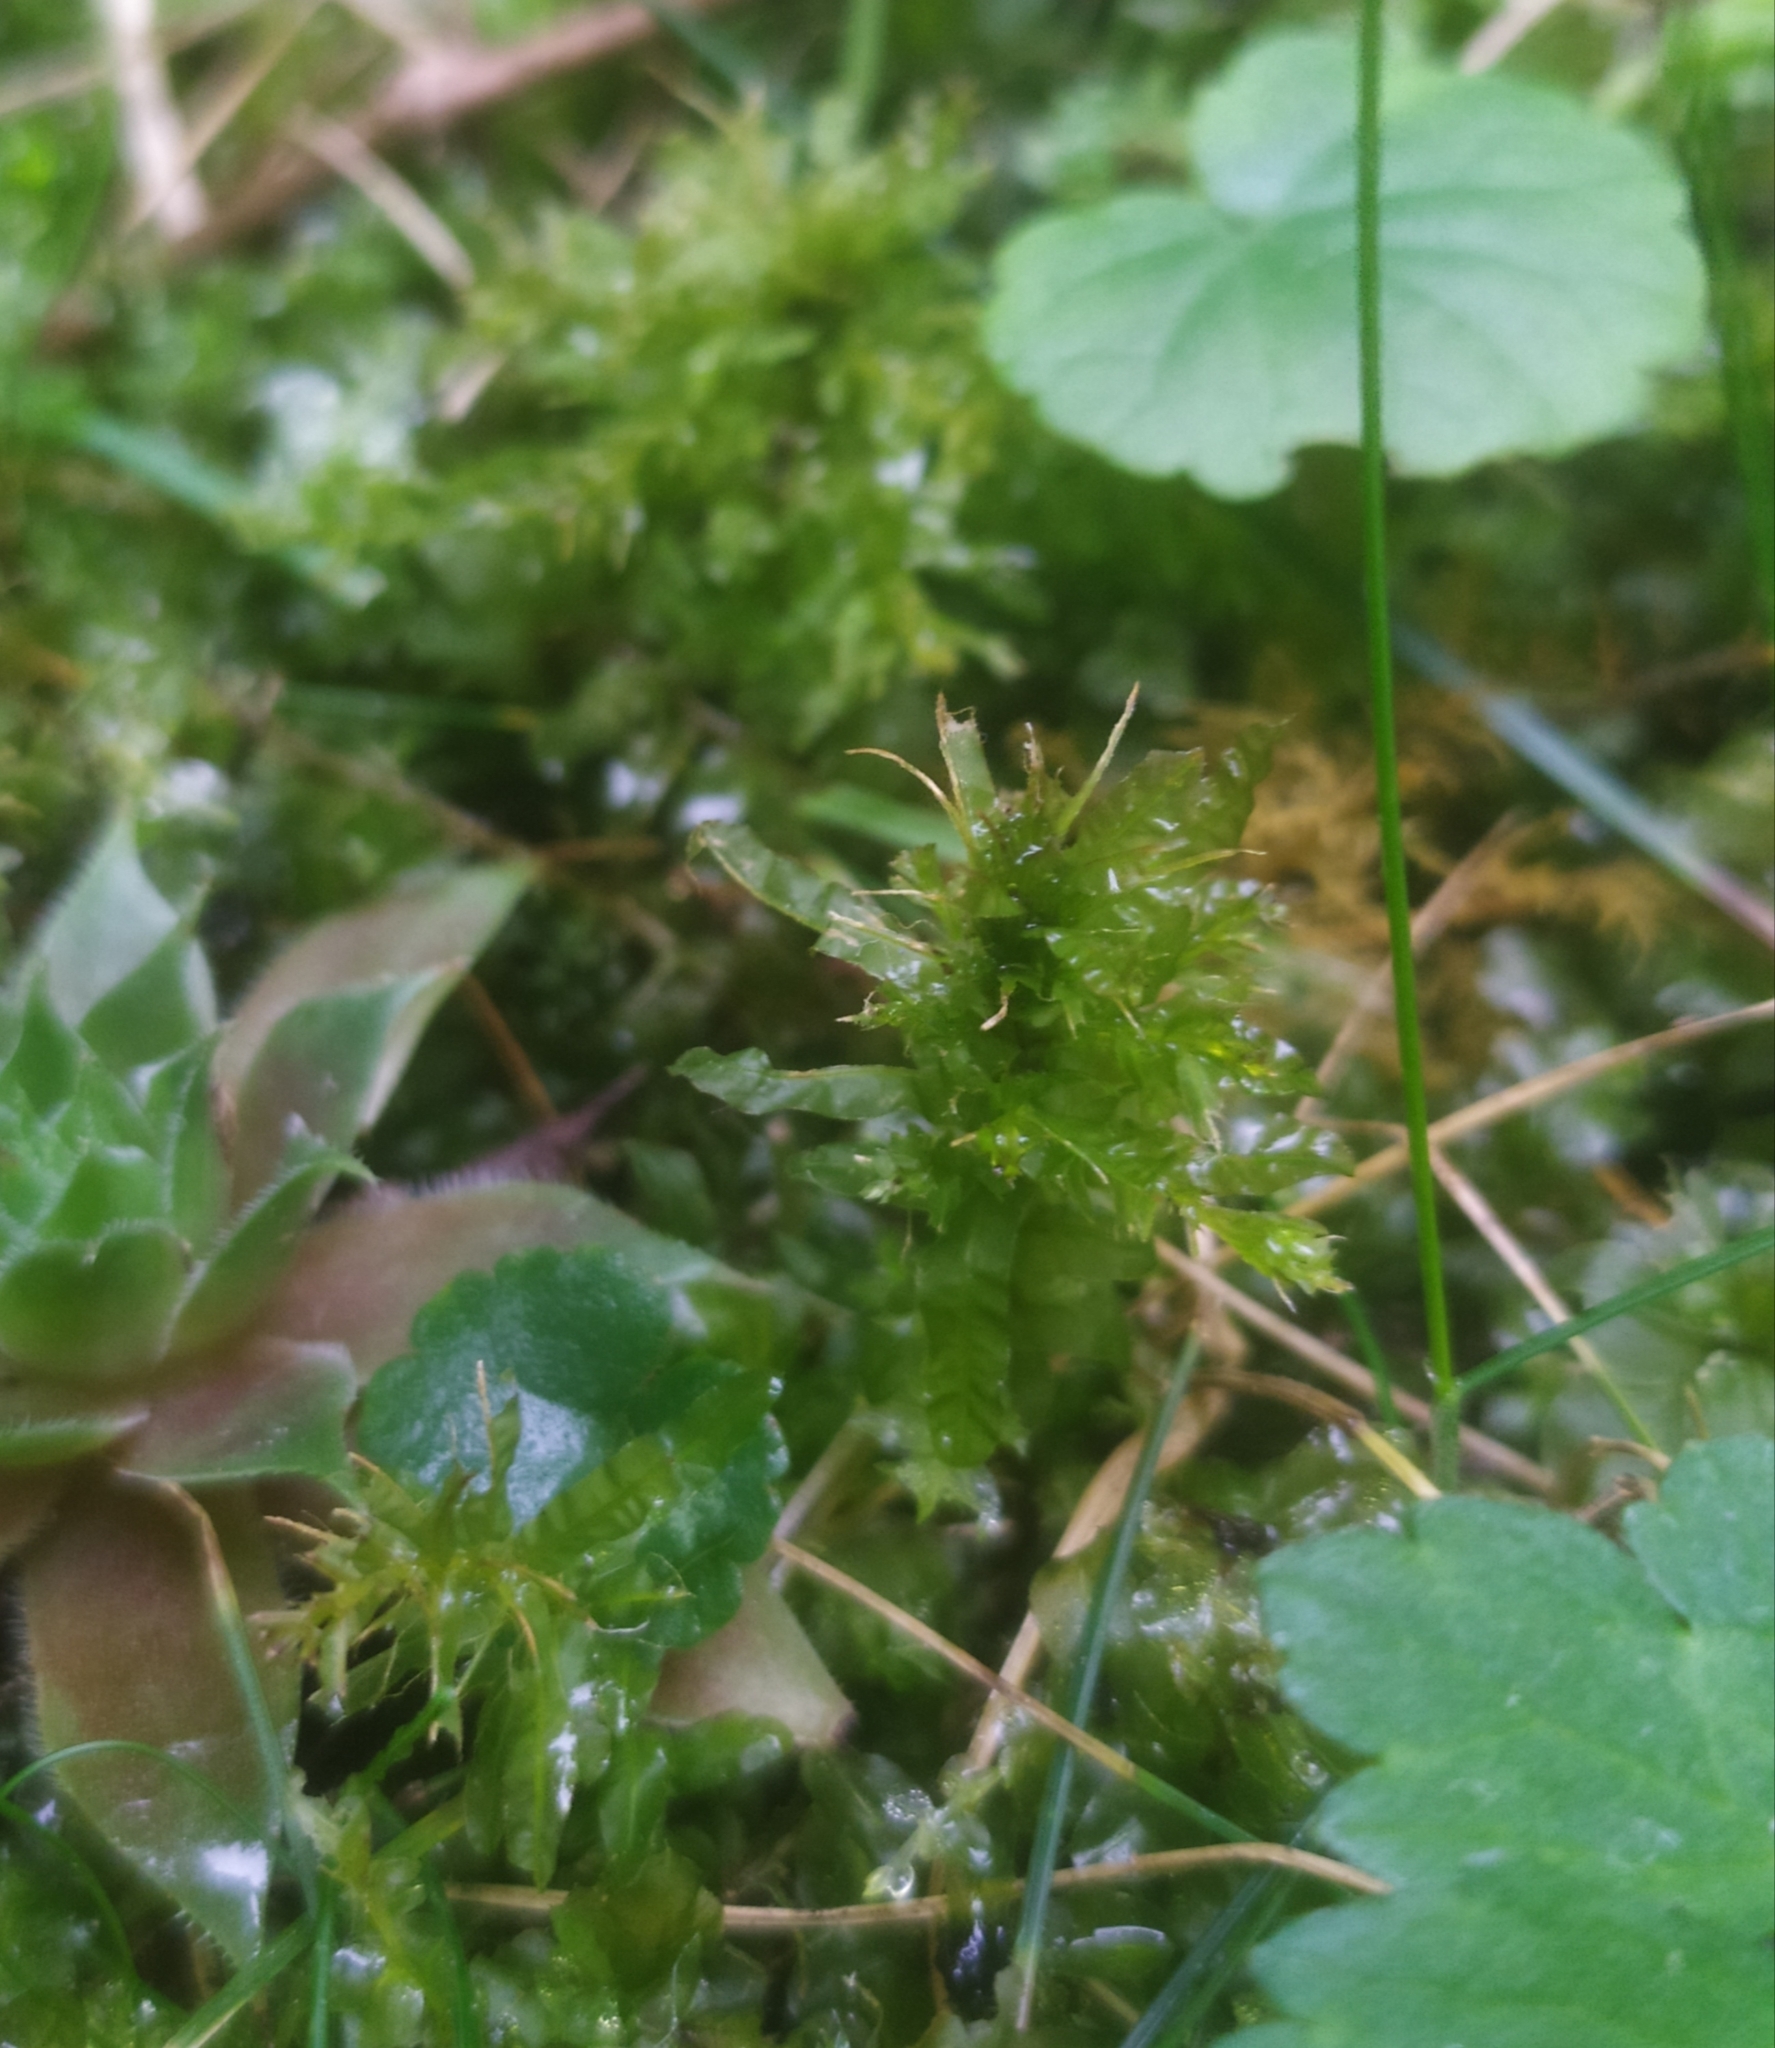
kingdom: Plantae
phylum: Bryophyta
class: Bryopsida
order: Bryales
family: Mniaceae
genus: Plagiomnium
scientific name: Plagiomnium undulatum
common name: Hart's-tongue thyme-moss
